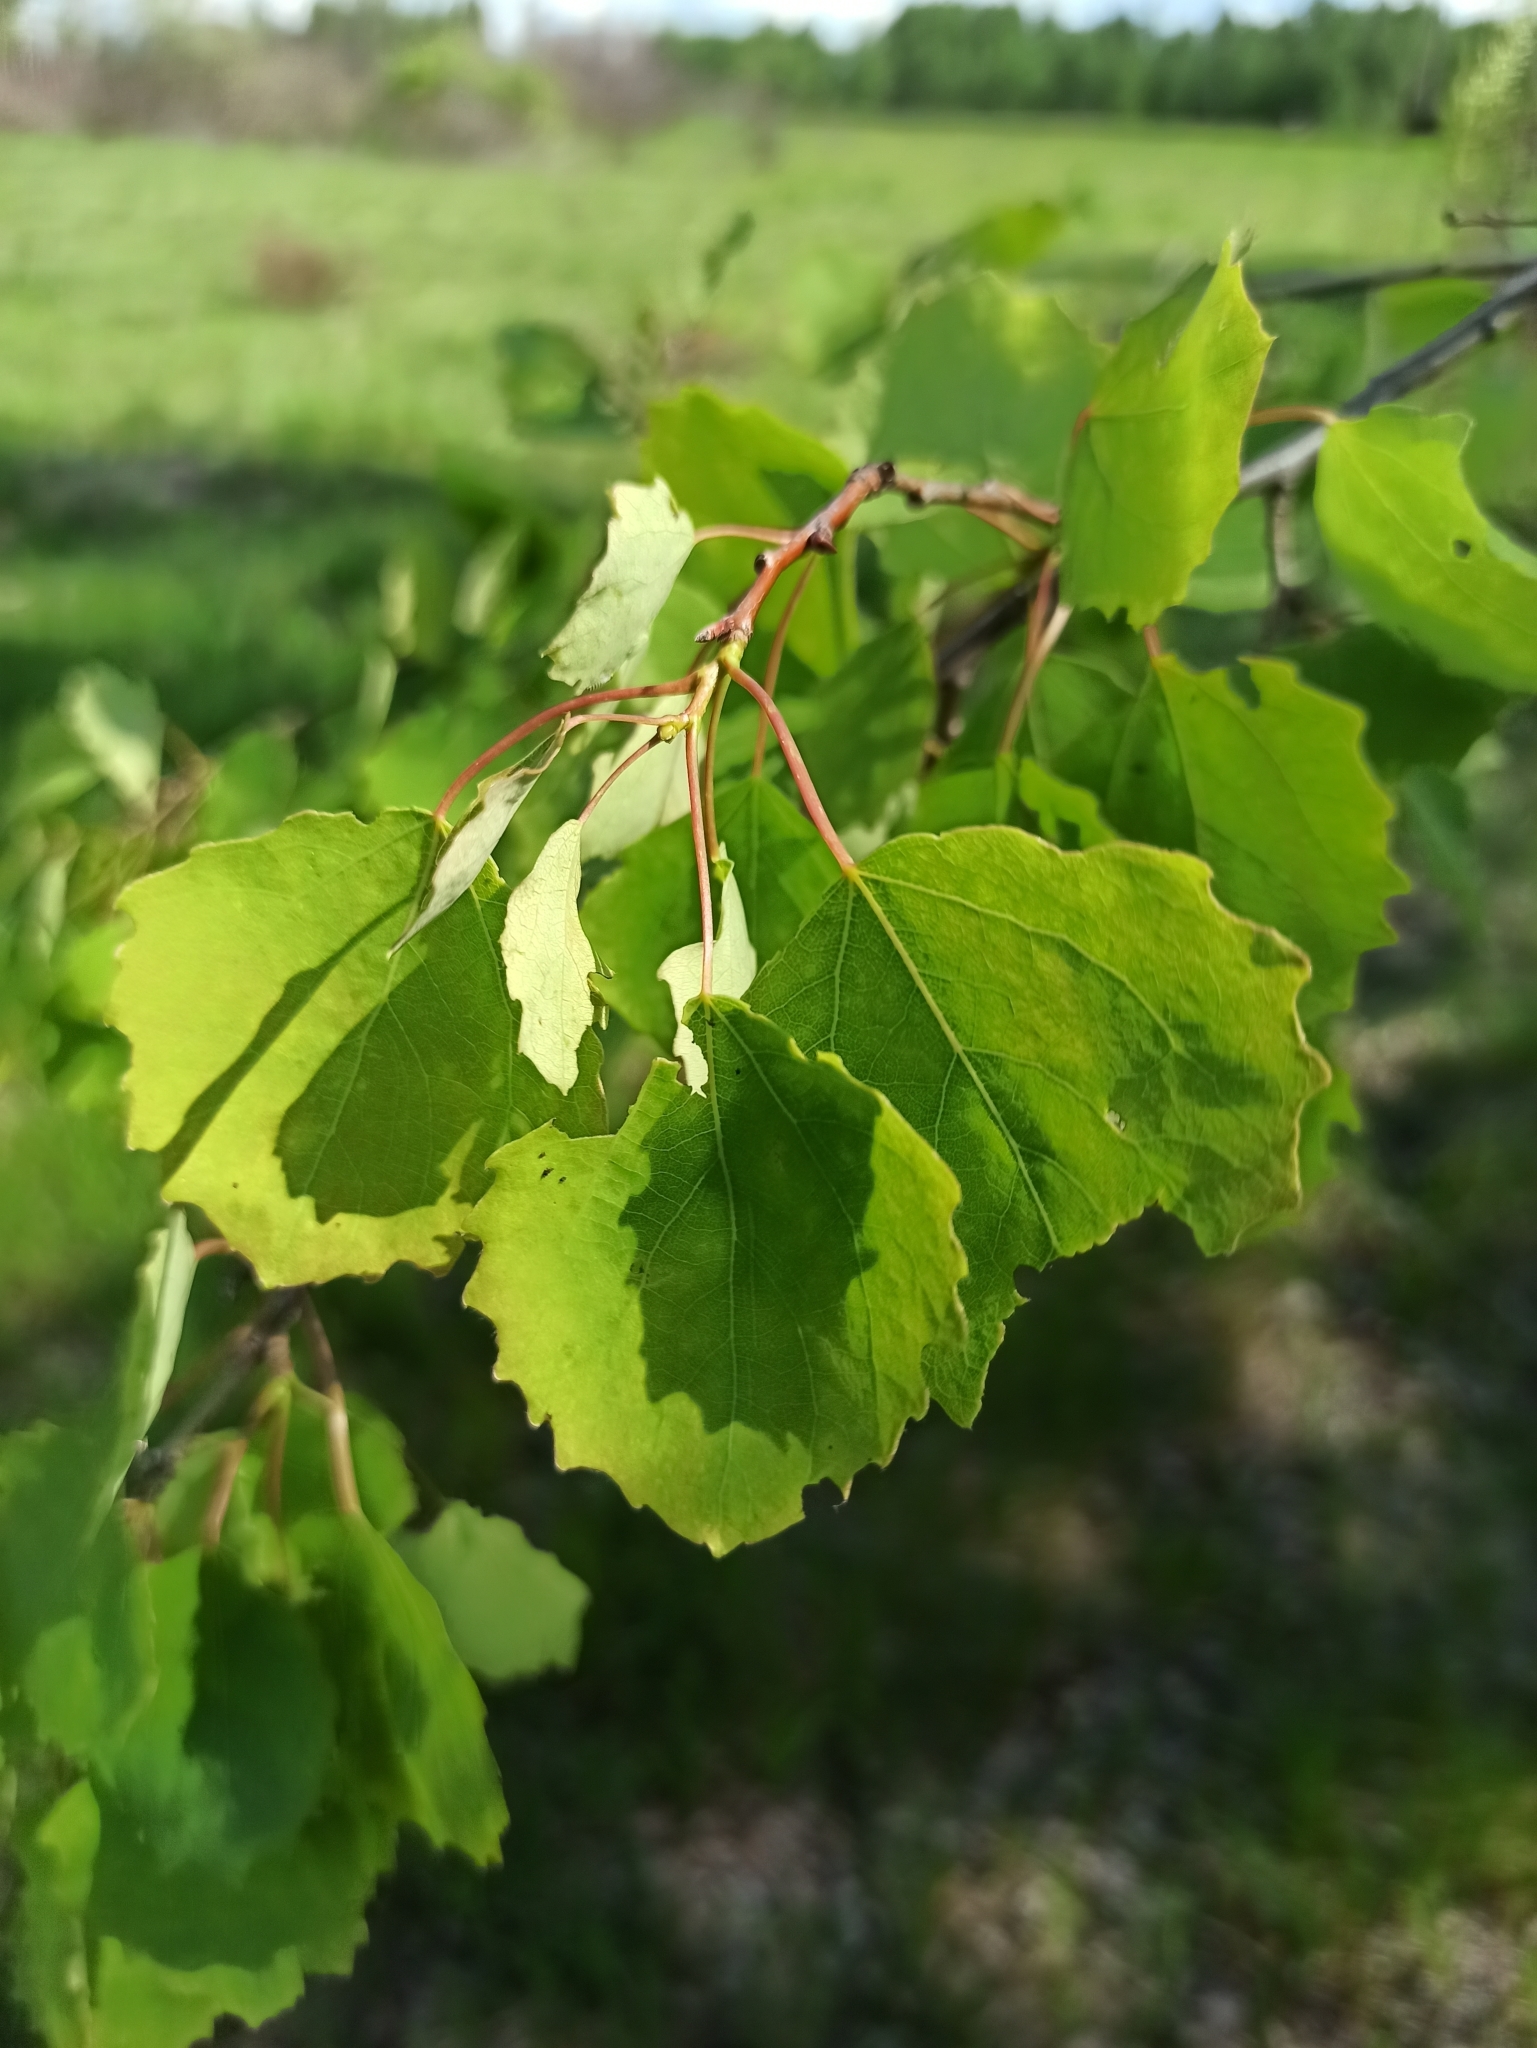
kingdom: Plantae
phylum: Tracheophyta
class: Magnoliopsida
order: Malpighiales
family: Salicaceae
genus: Populus
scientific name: Populus tremula
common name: European aspen
